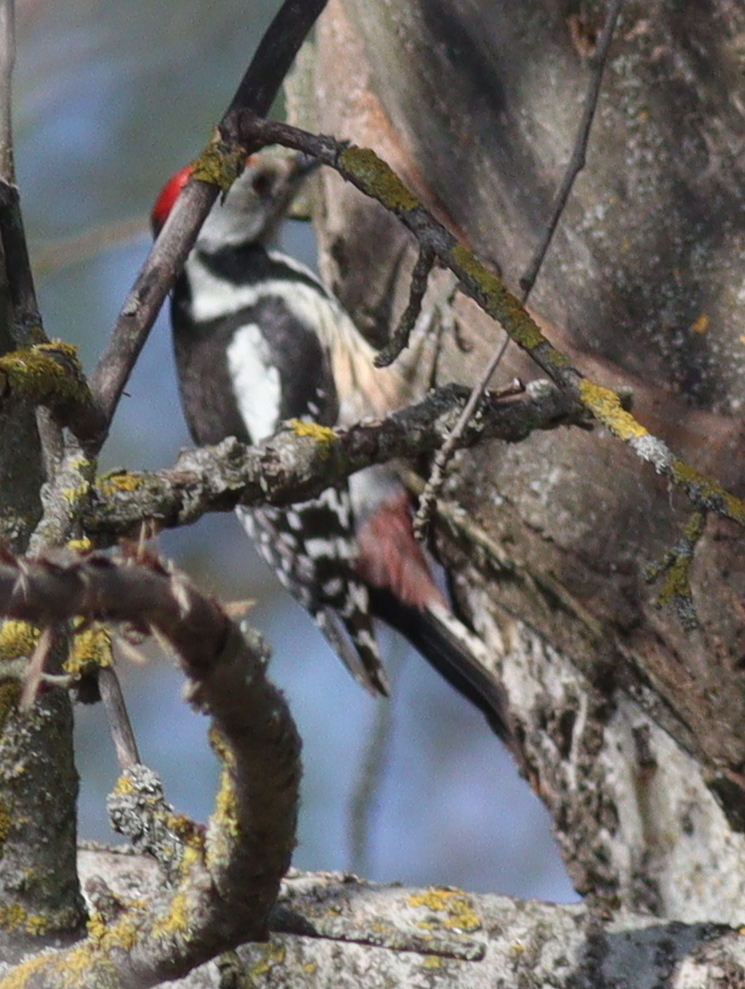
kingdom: Animalia
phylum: Chordata
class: Aves
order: Piciformes
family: Picidae
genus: Dendrocoptes
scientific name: Dendrocoptes medius
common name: Middle spotted woodpecker
